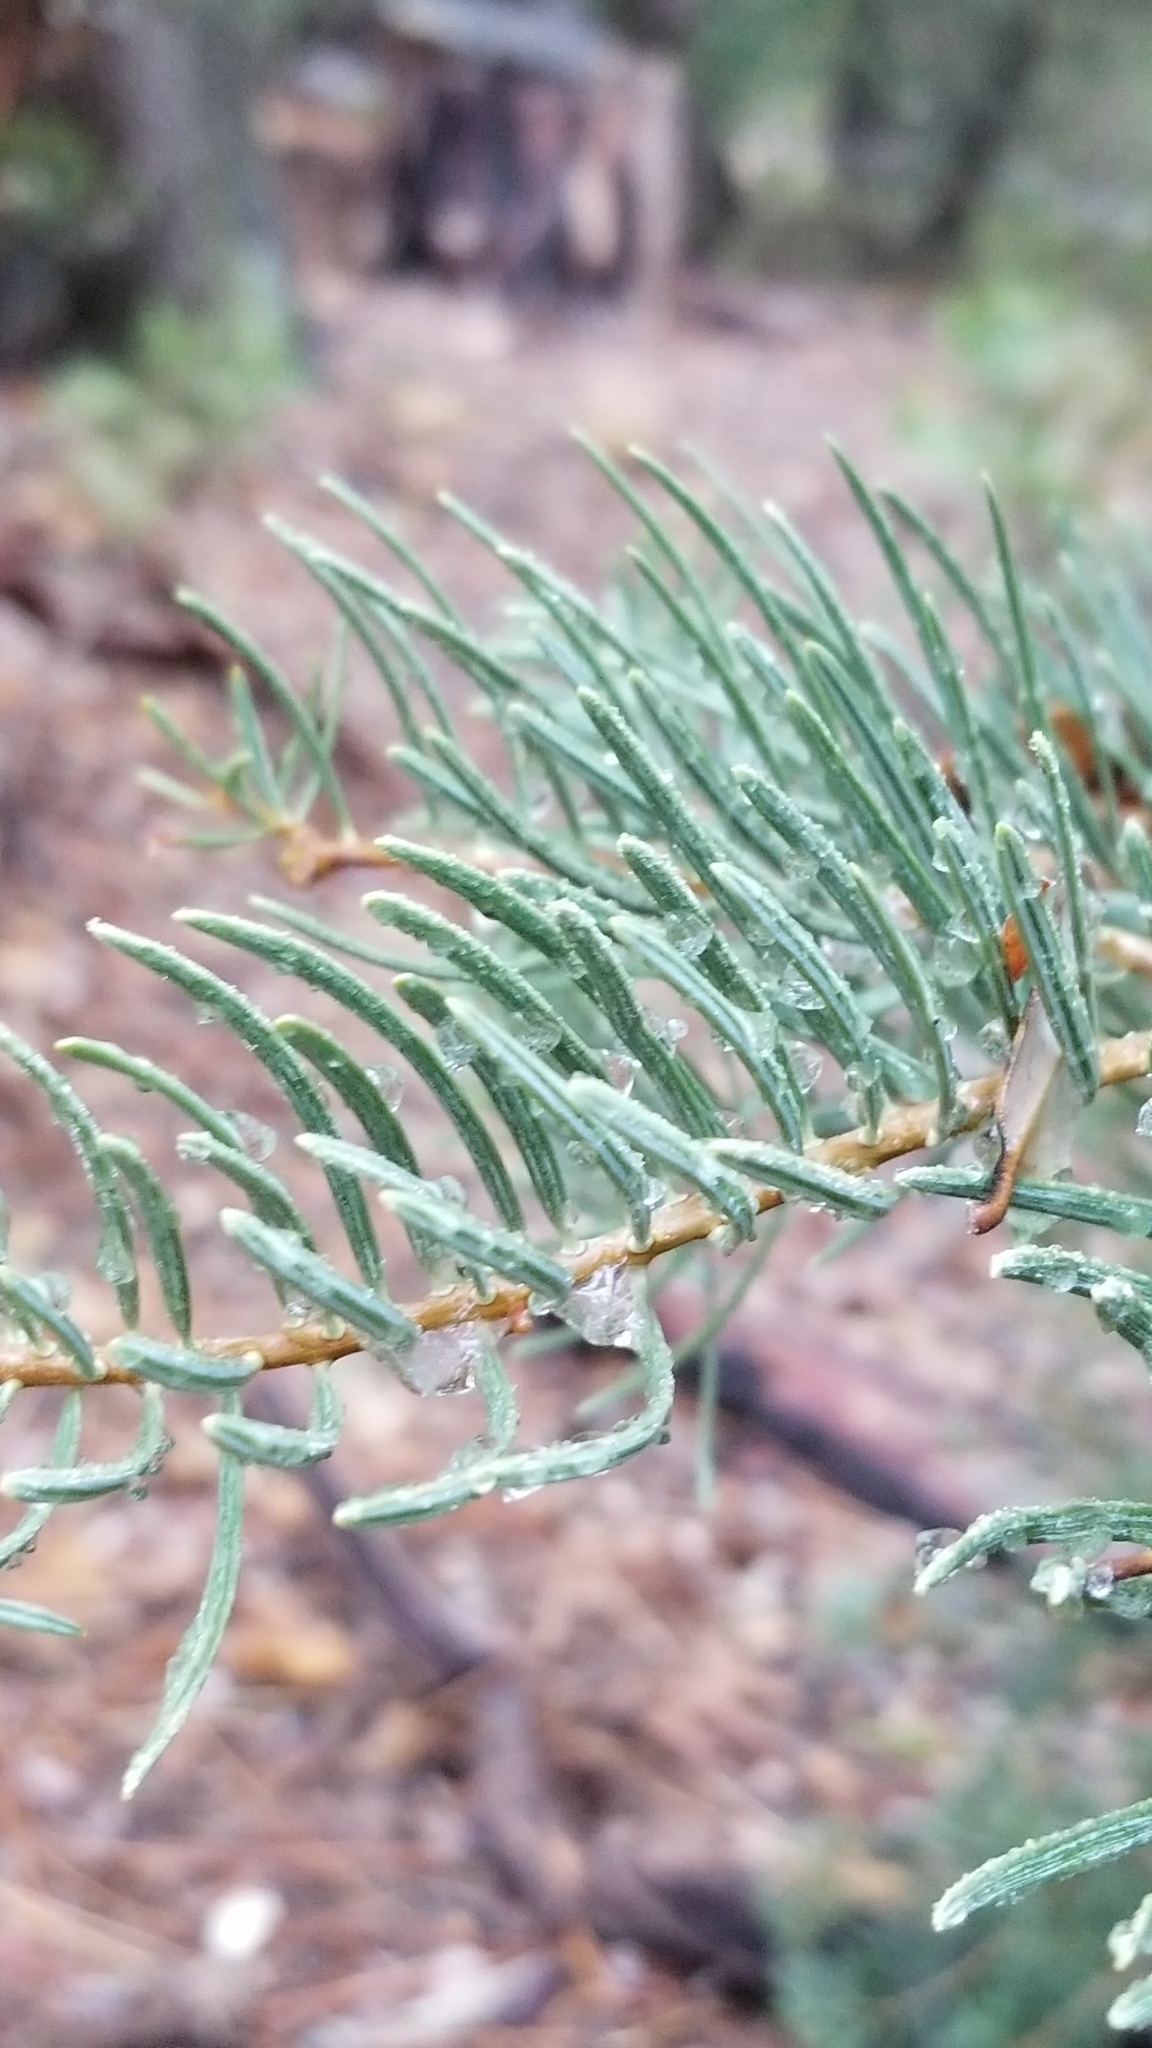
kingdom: Plantae
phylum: Tracheophyta
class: Pinopsida
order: Pinales
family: Pinaceae
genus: Abies
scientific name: Abies concolor
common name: Colorado fir
